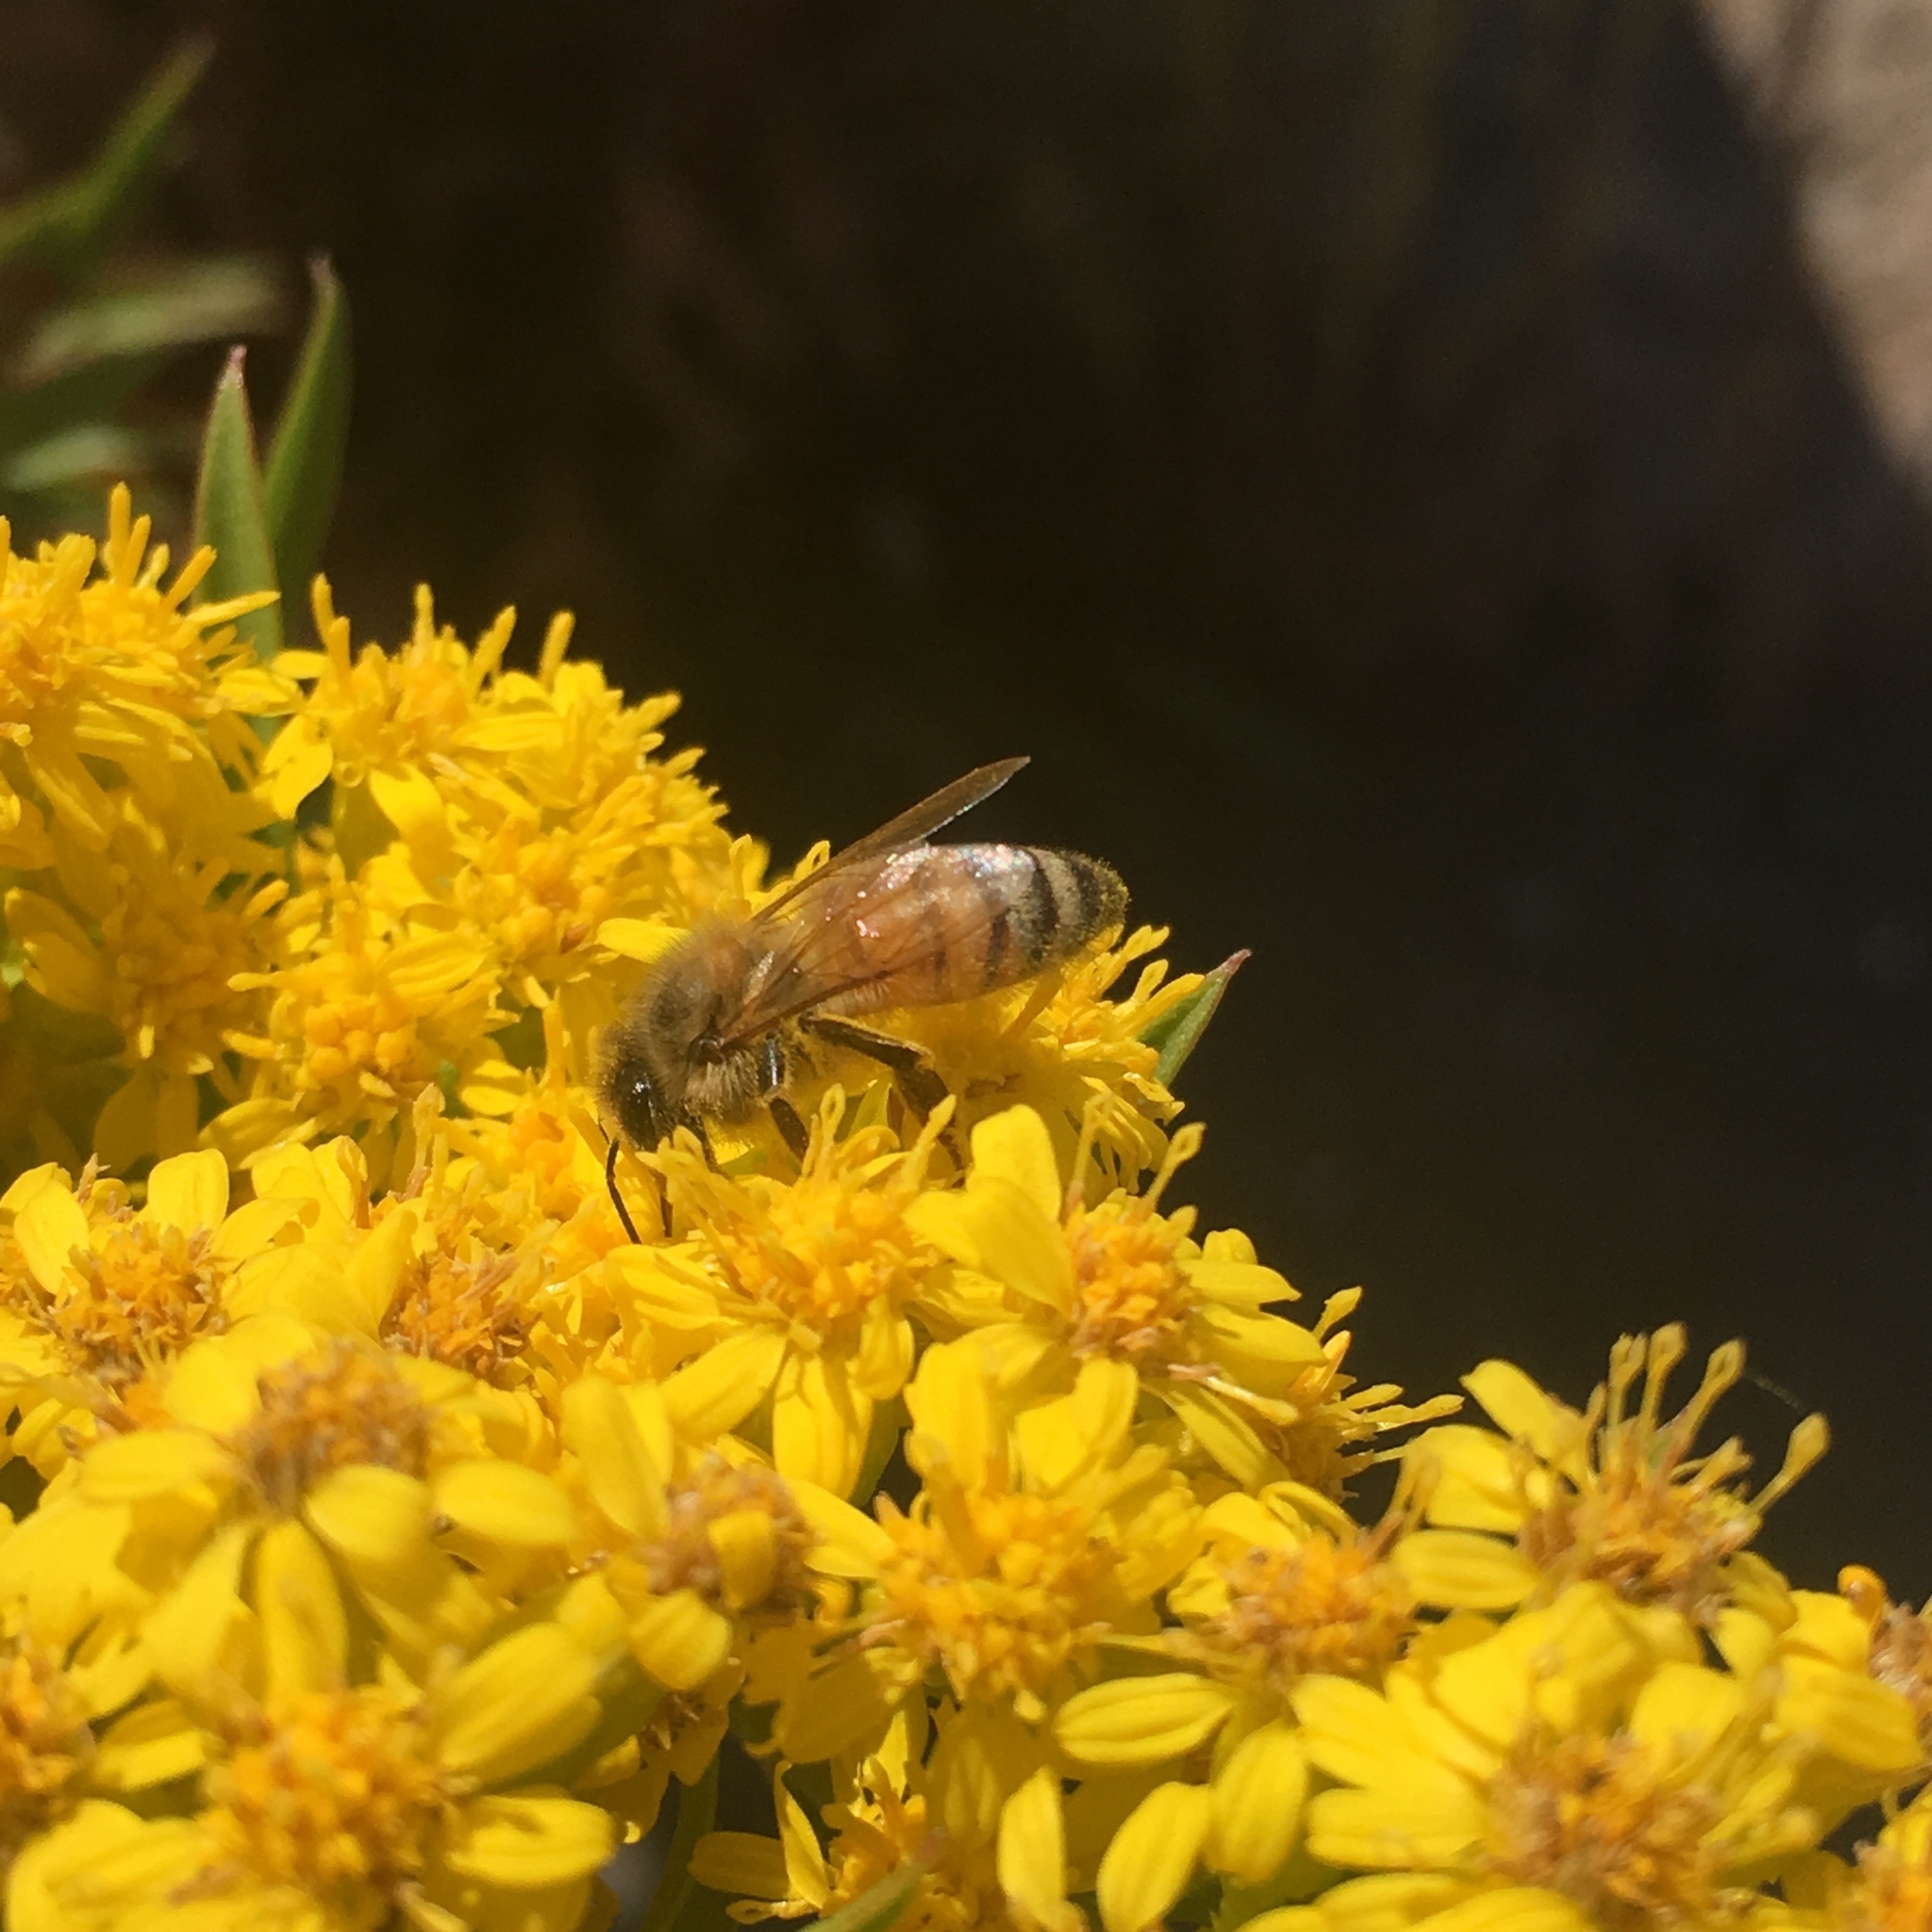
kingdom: Animalia
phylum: Arthropoda
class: Insecta
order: Hymenoptera
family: Apidae
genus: Apis
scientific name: Apis mellifera
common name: Honey bee
